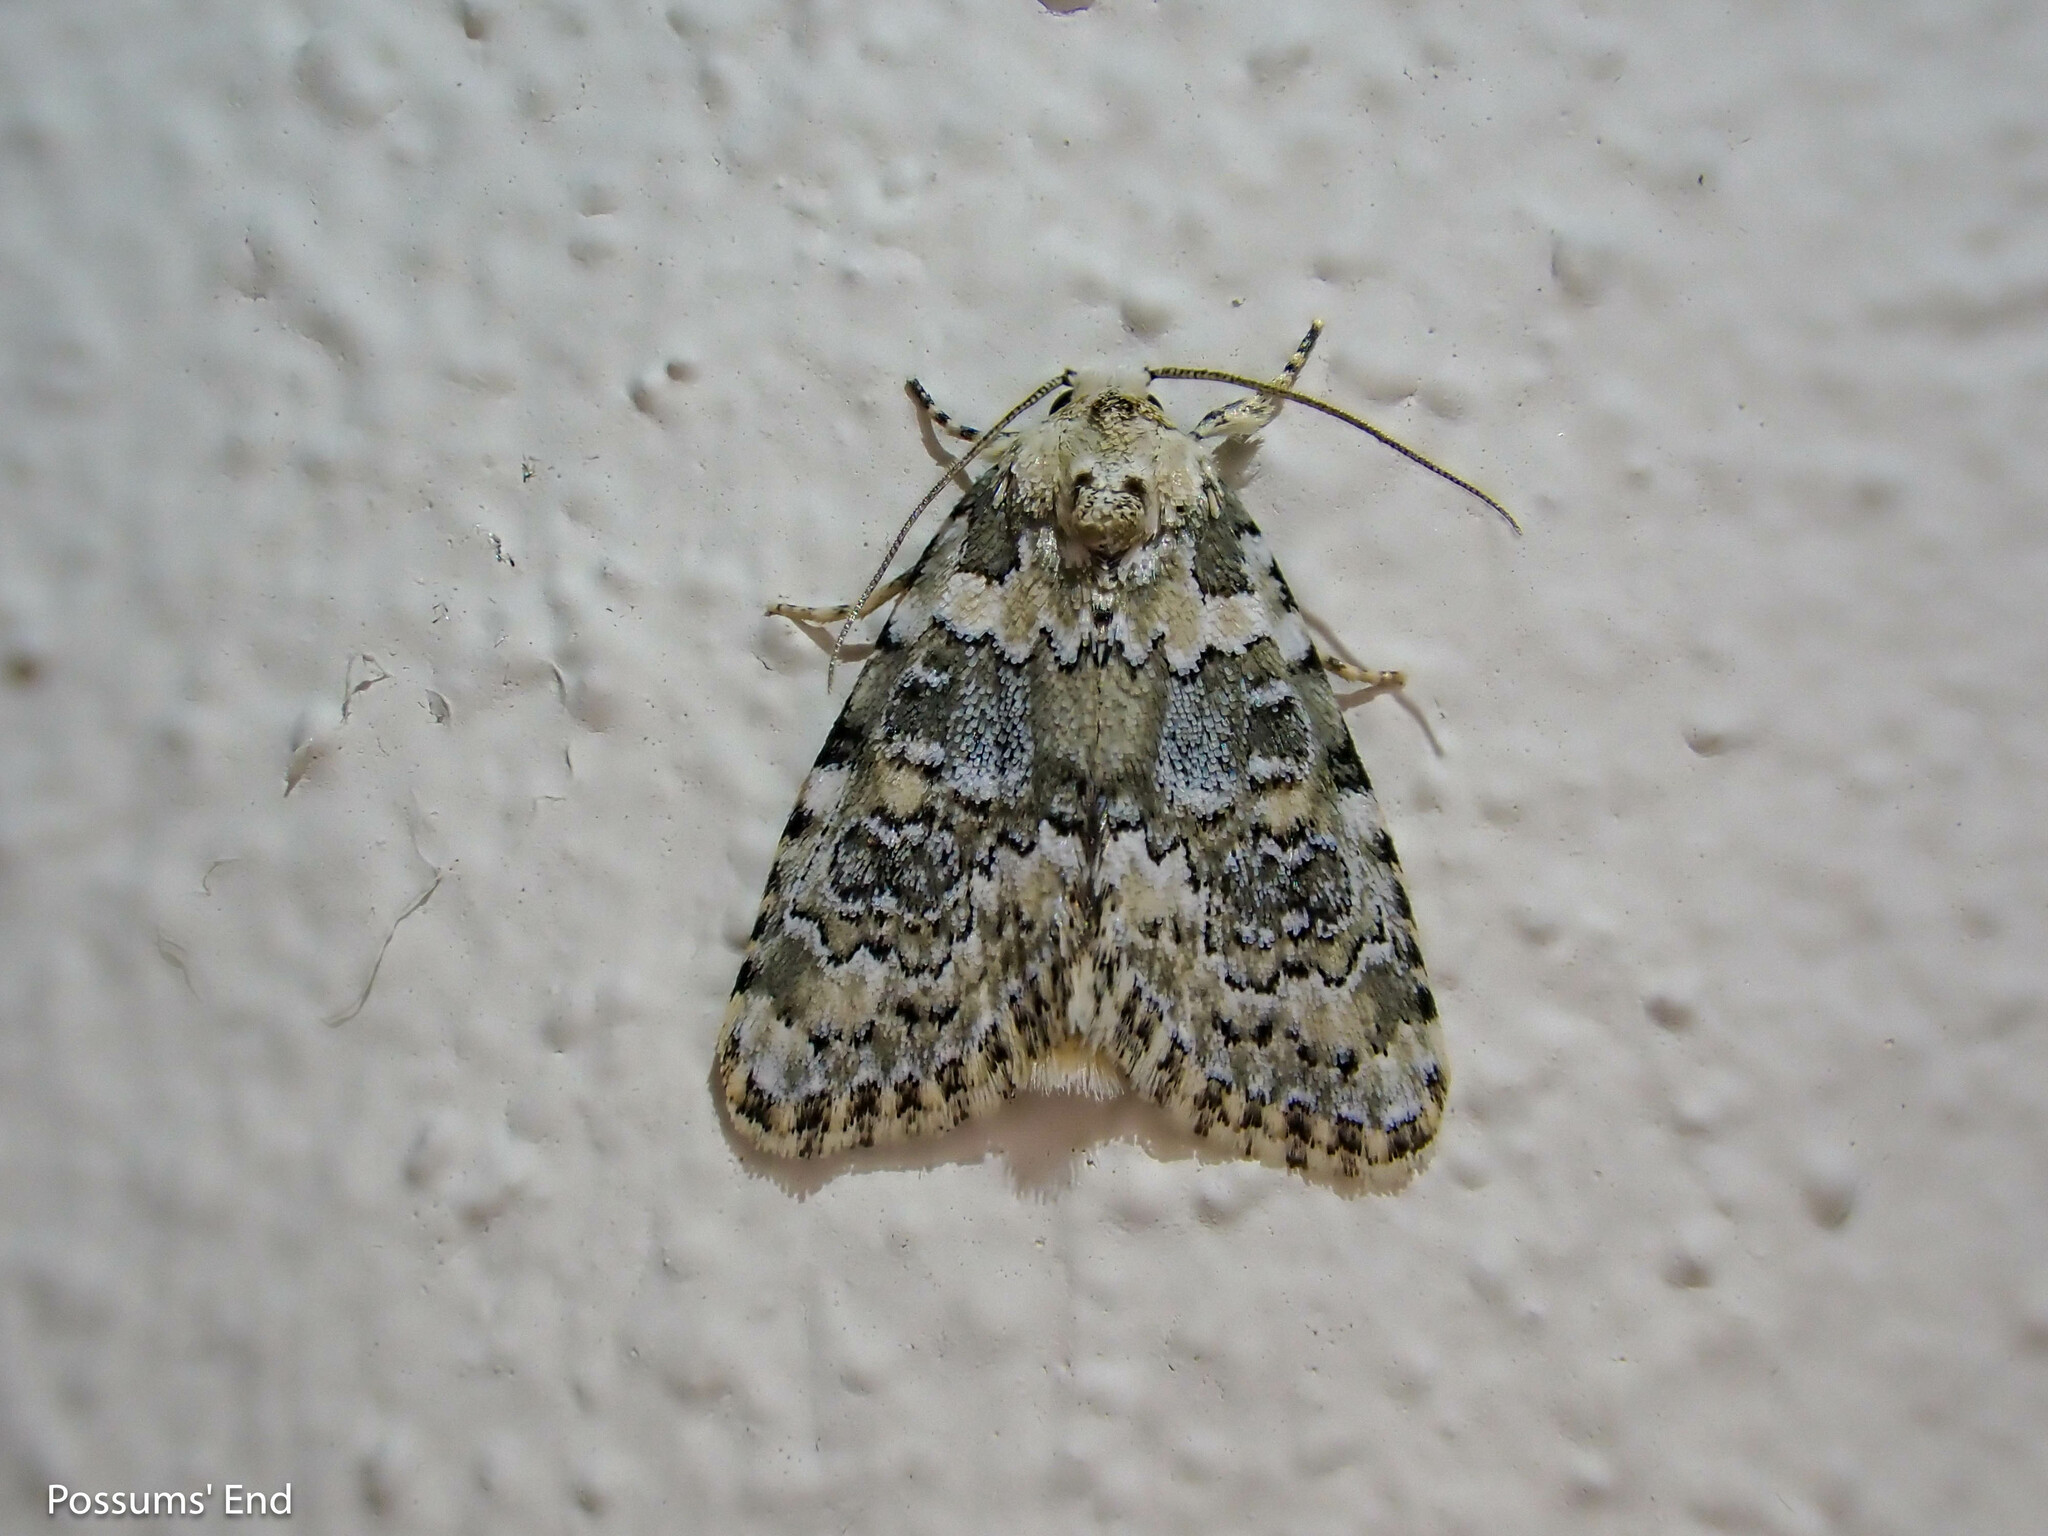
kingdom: Animalia
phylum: Arthropoda
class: Insecta
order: Lepidoptera
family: Noctuidae
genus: Bryophila
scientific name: Bryophila domestica
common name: Marbled beauty
